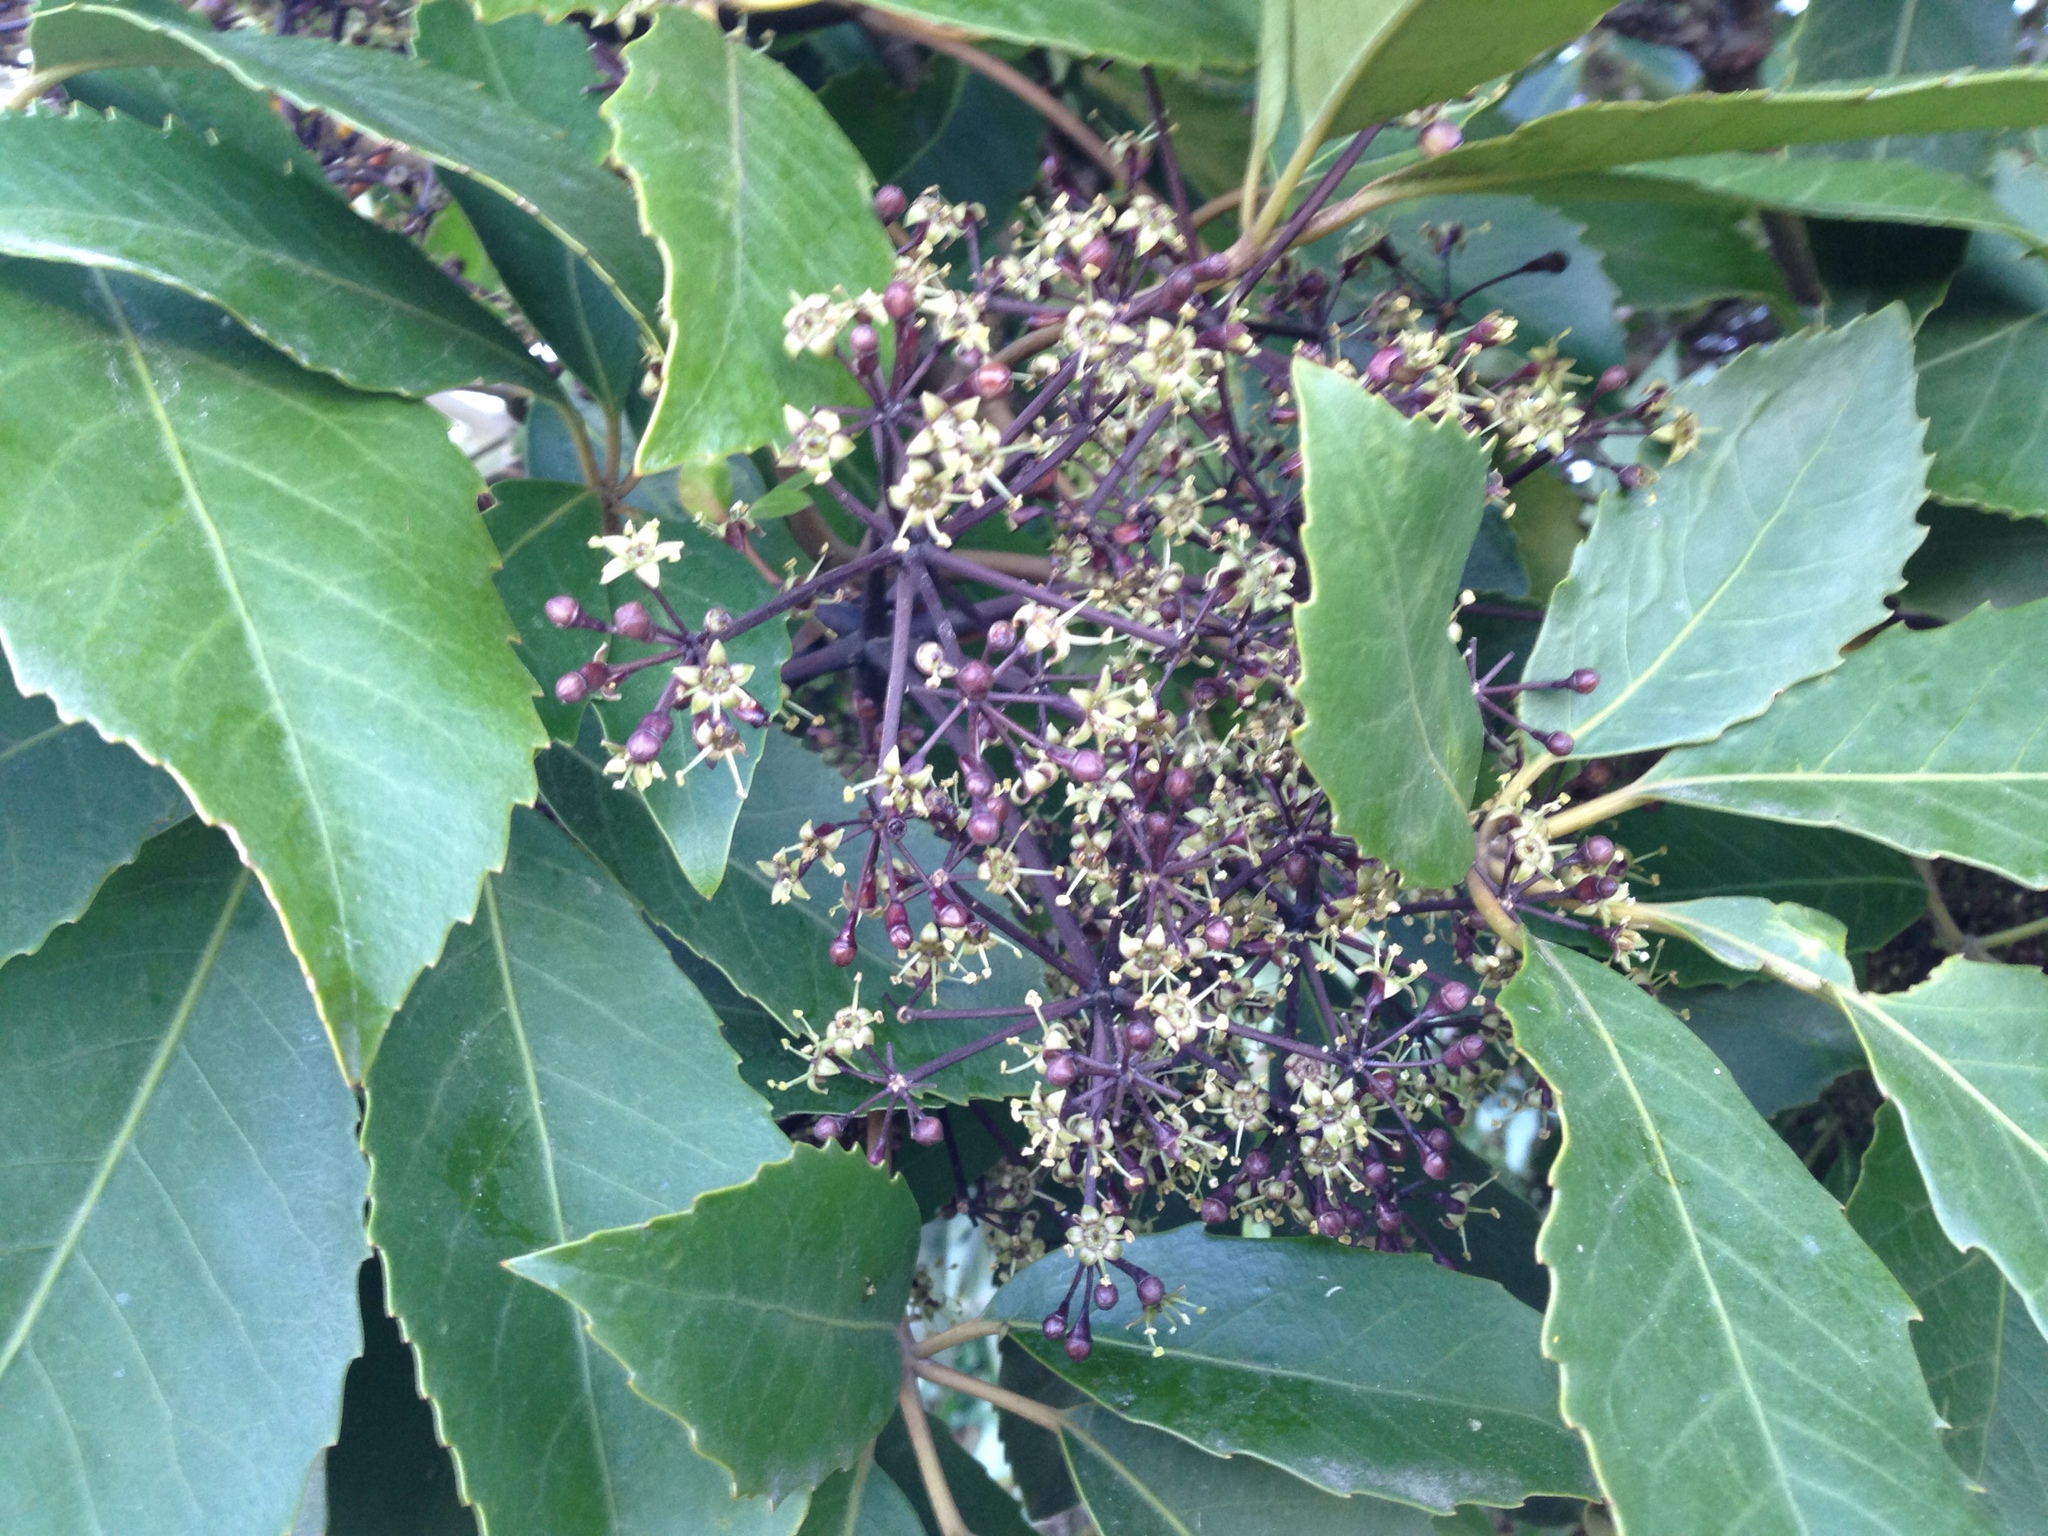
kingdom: Plantae
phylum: Tracheophyta
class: Magnoliopsida
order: Apiales
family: Araliaceae
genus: Neopanax
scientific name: Neopanax arboreus
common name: Five-fingers
